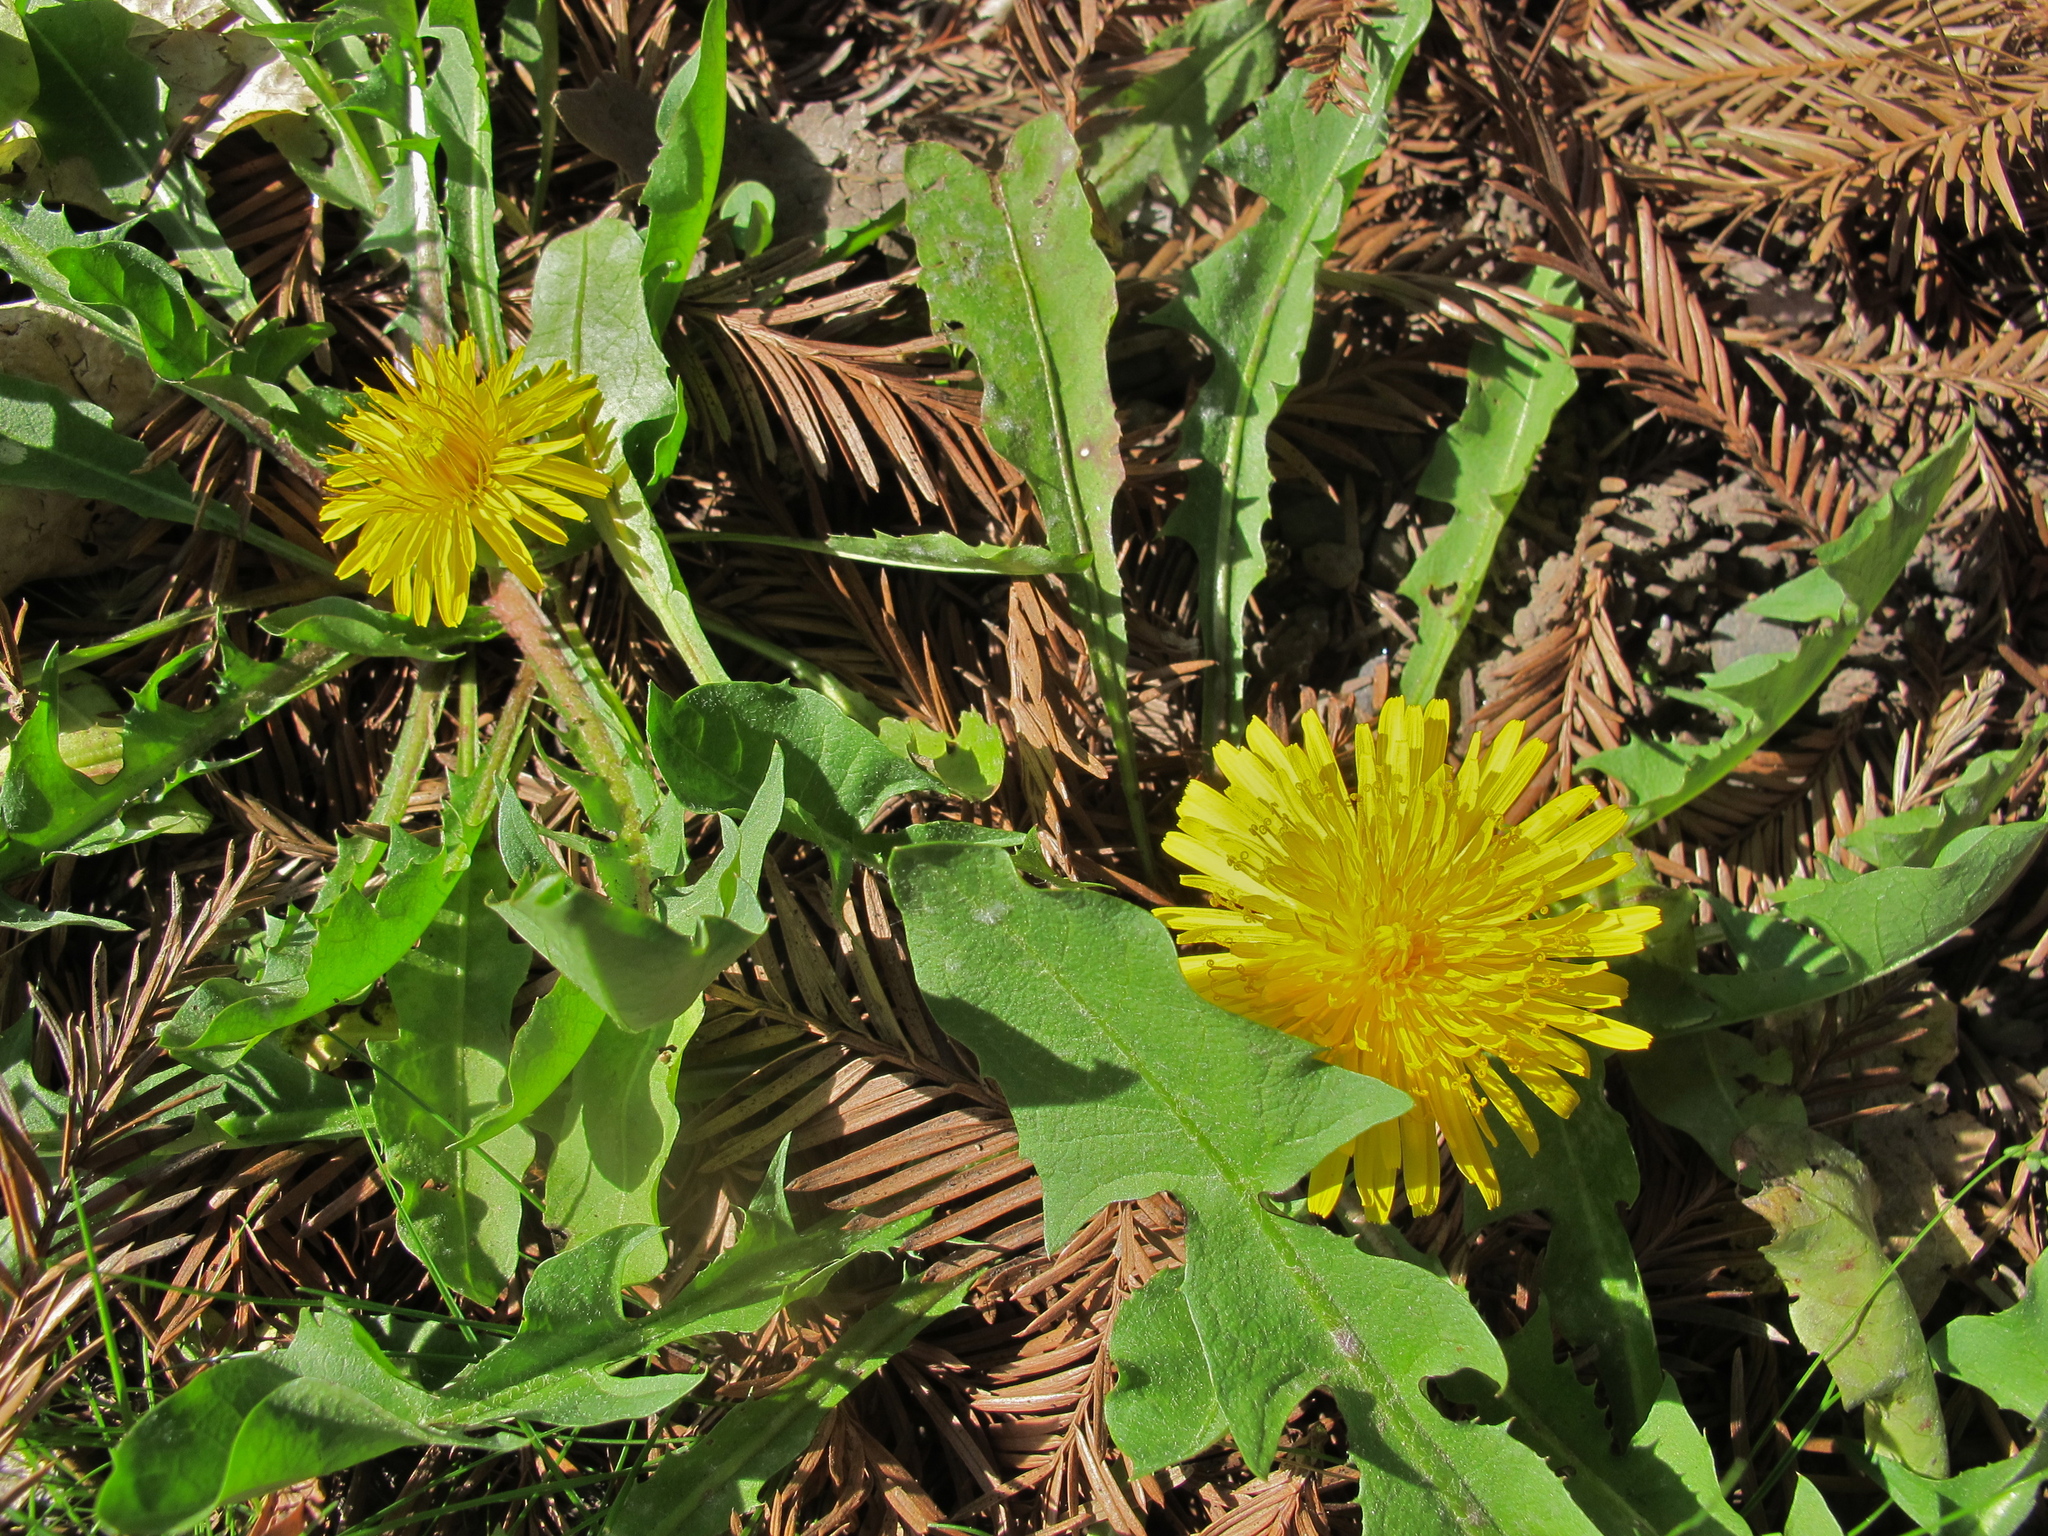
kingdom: Plantae
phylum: Tracheophyta
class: Magnoliopsida
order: Asterales
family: Asteraceae
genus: Taraxacum
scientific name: Taraxacum officinale
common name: Common dandelion
